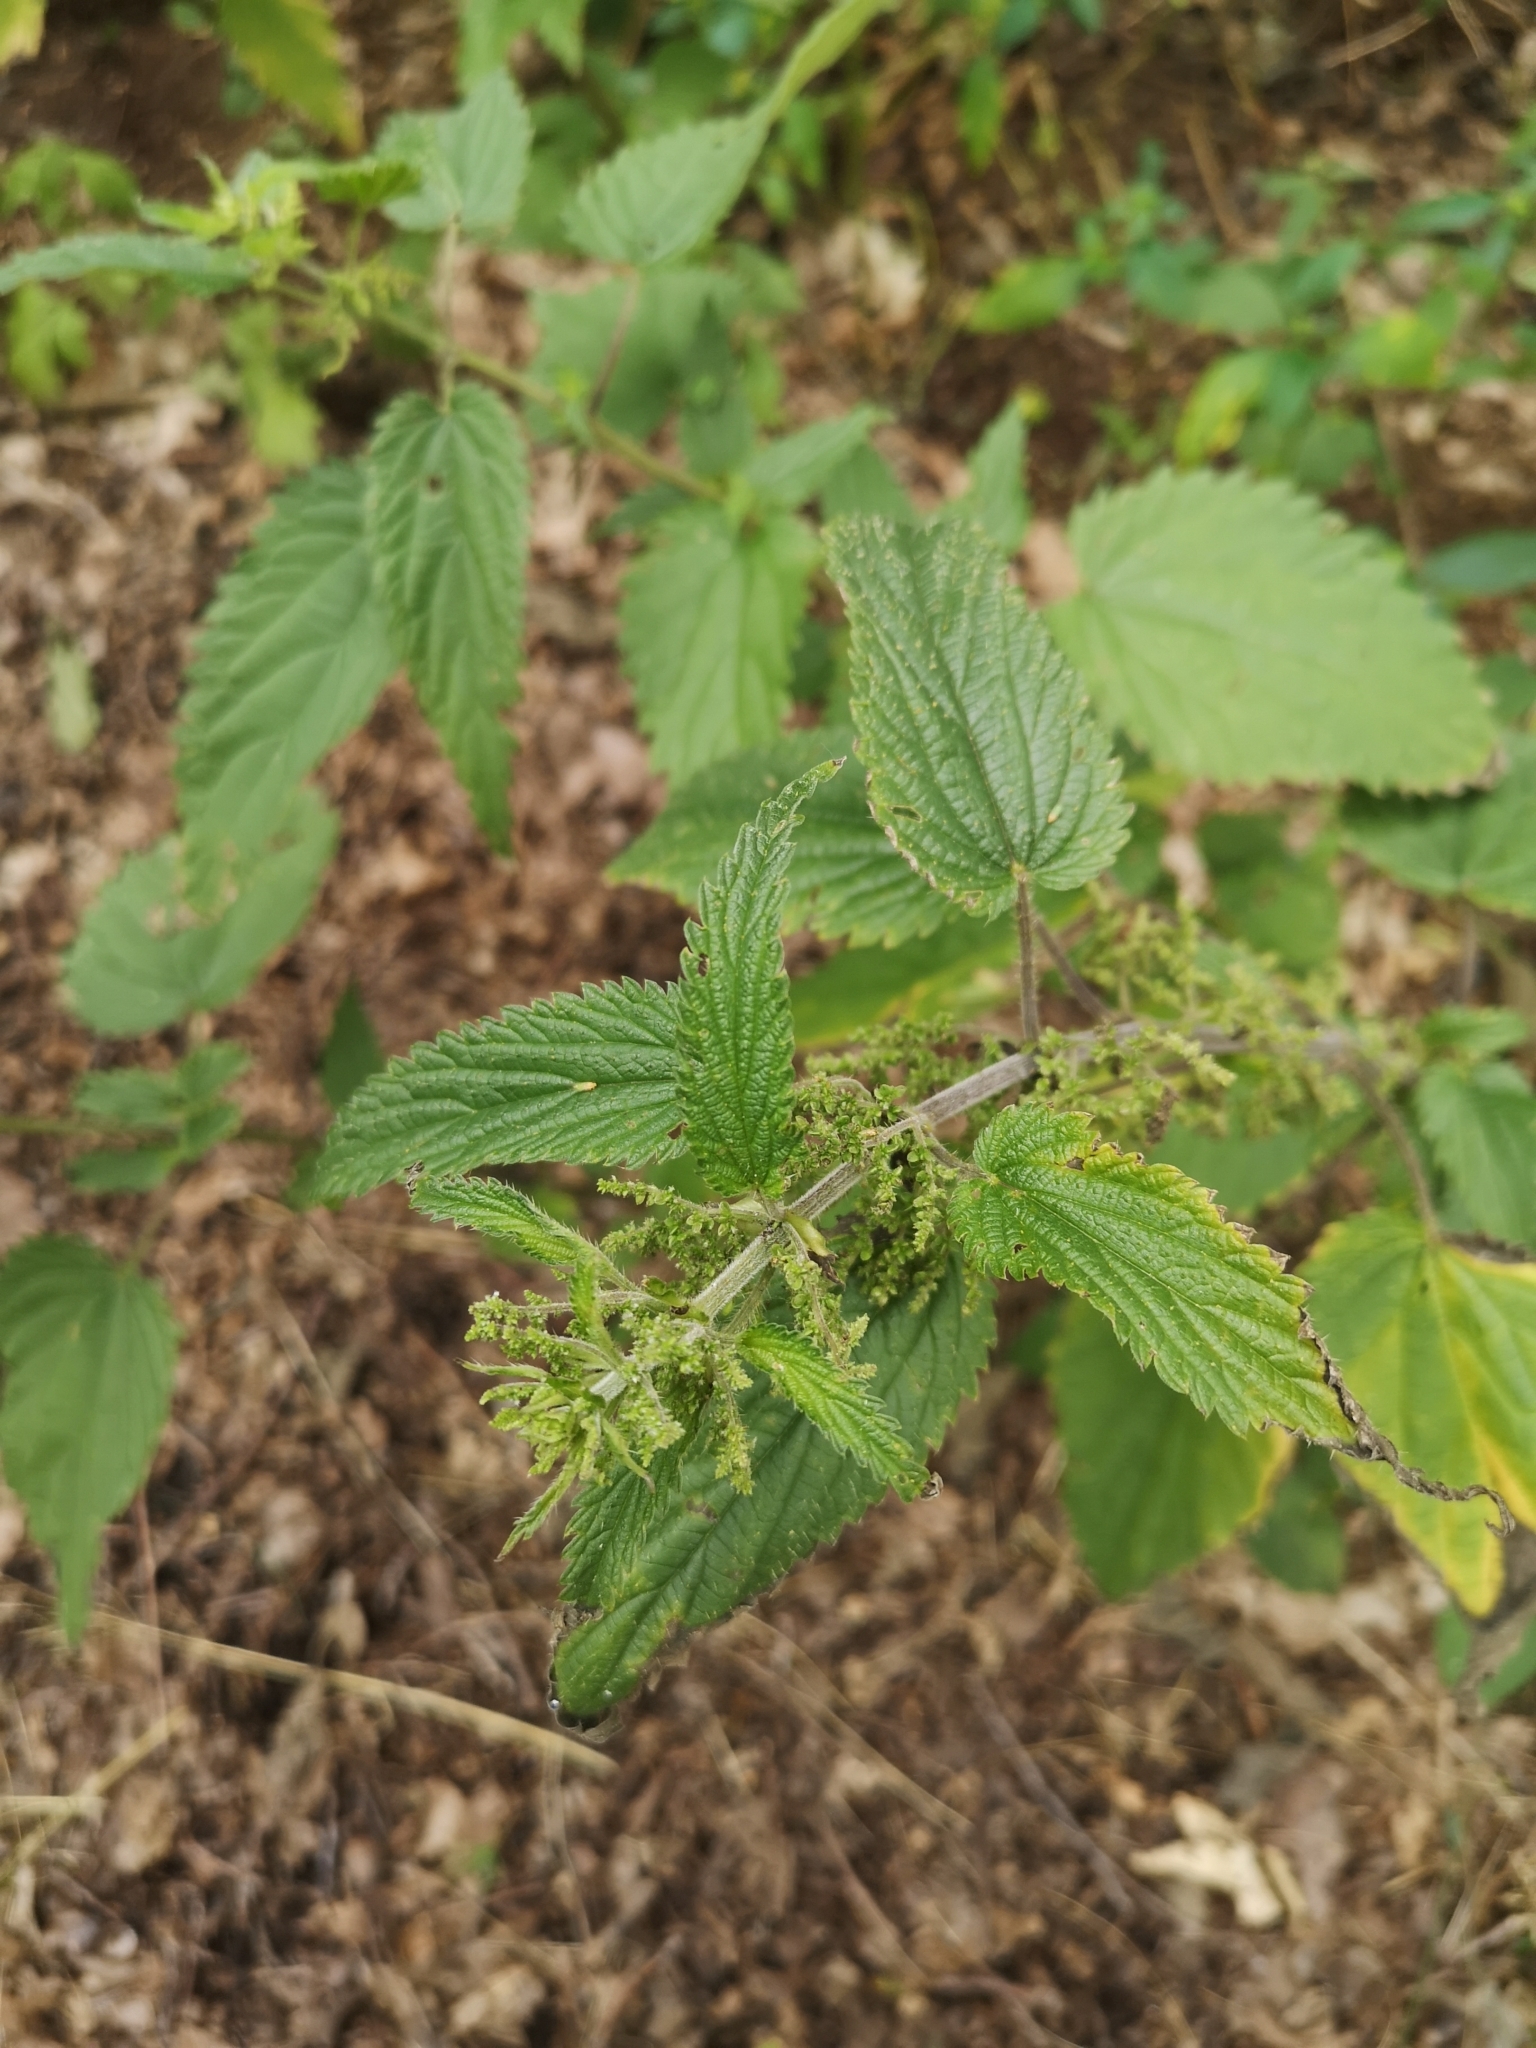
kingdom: Plantae
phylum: Tracheophyta
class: Magnoliopsida
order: Rosales
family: Urticaceae
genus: Urtica
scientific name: Urtica dioica
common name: Common nettle
